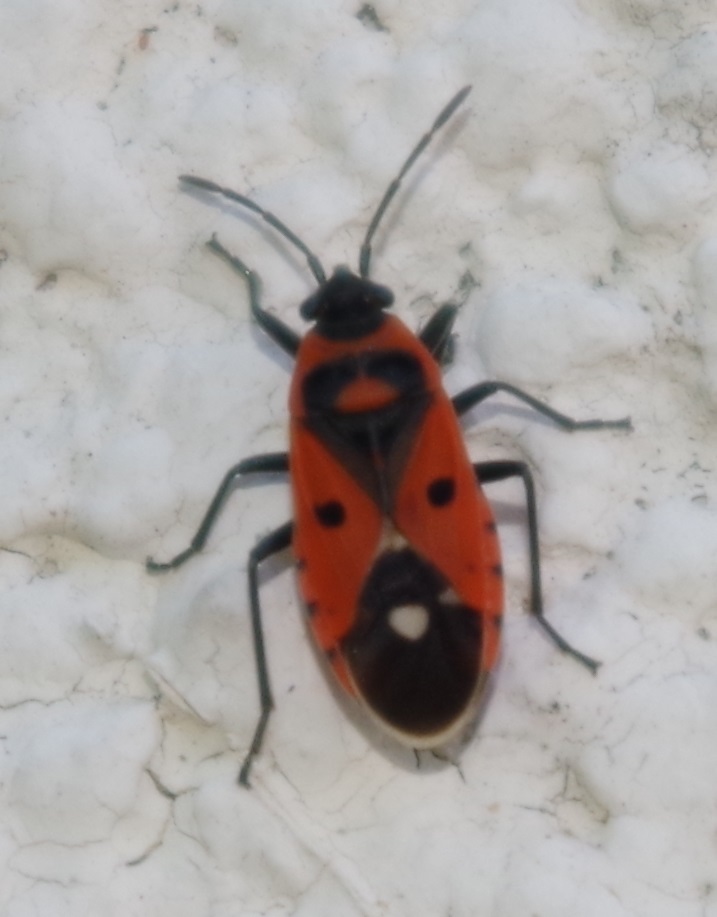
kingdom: Animalia
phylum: Arthropoda
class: Insecta
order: Hemiptera
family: Lygaeidae
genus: Melanocoryphus
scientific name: Melanocoryphus albomaculatus
